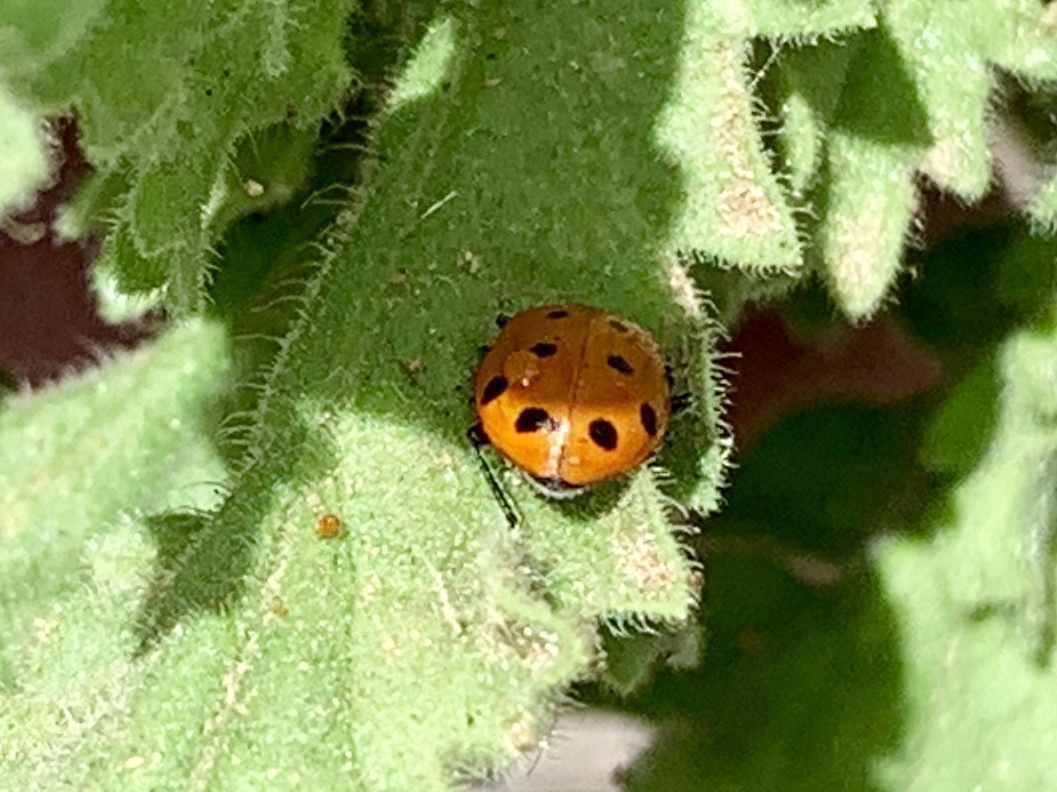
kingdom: Animalia
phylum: Arthropoda
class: Insecta
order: Coleoptera
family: Coccinellidae
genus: Hippodamia
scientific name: Hippodamia convergens
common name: Convergent lady beetle
